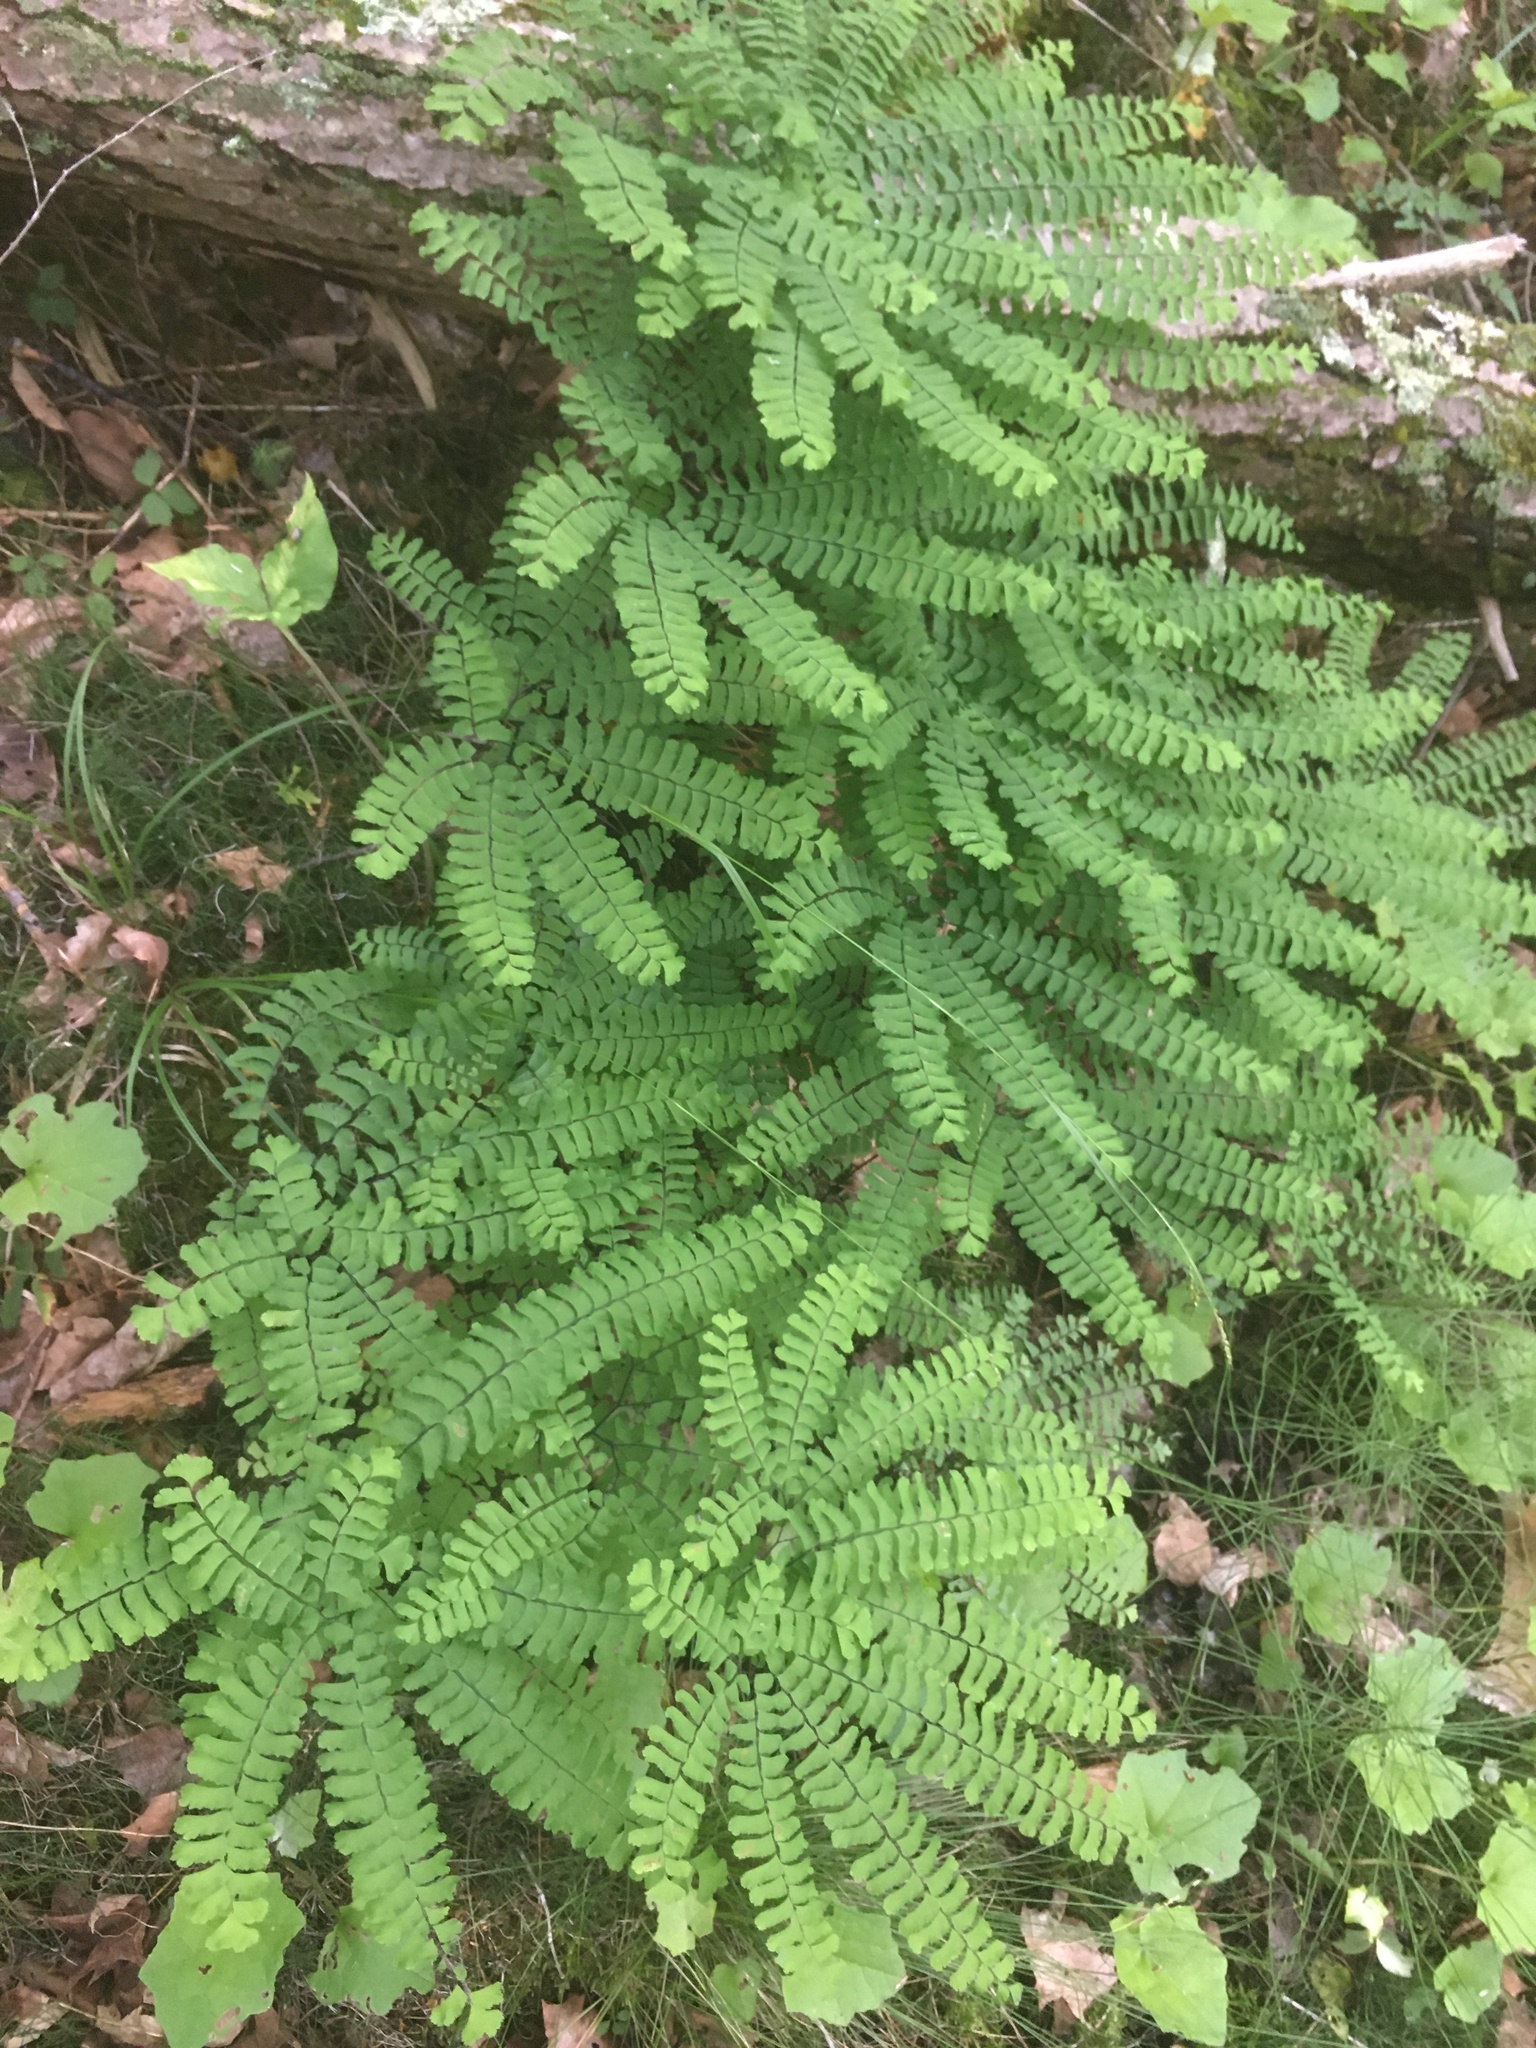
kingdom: Plantae
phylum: Tracheophyta
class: Polypodiopsida
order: Polypodiales
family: Pteridaceae
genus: Adiantum
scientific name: Adiantum pedatum
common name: Five-finger fern
